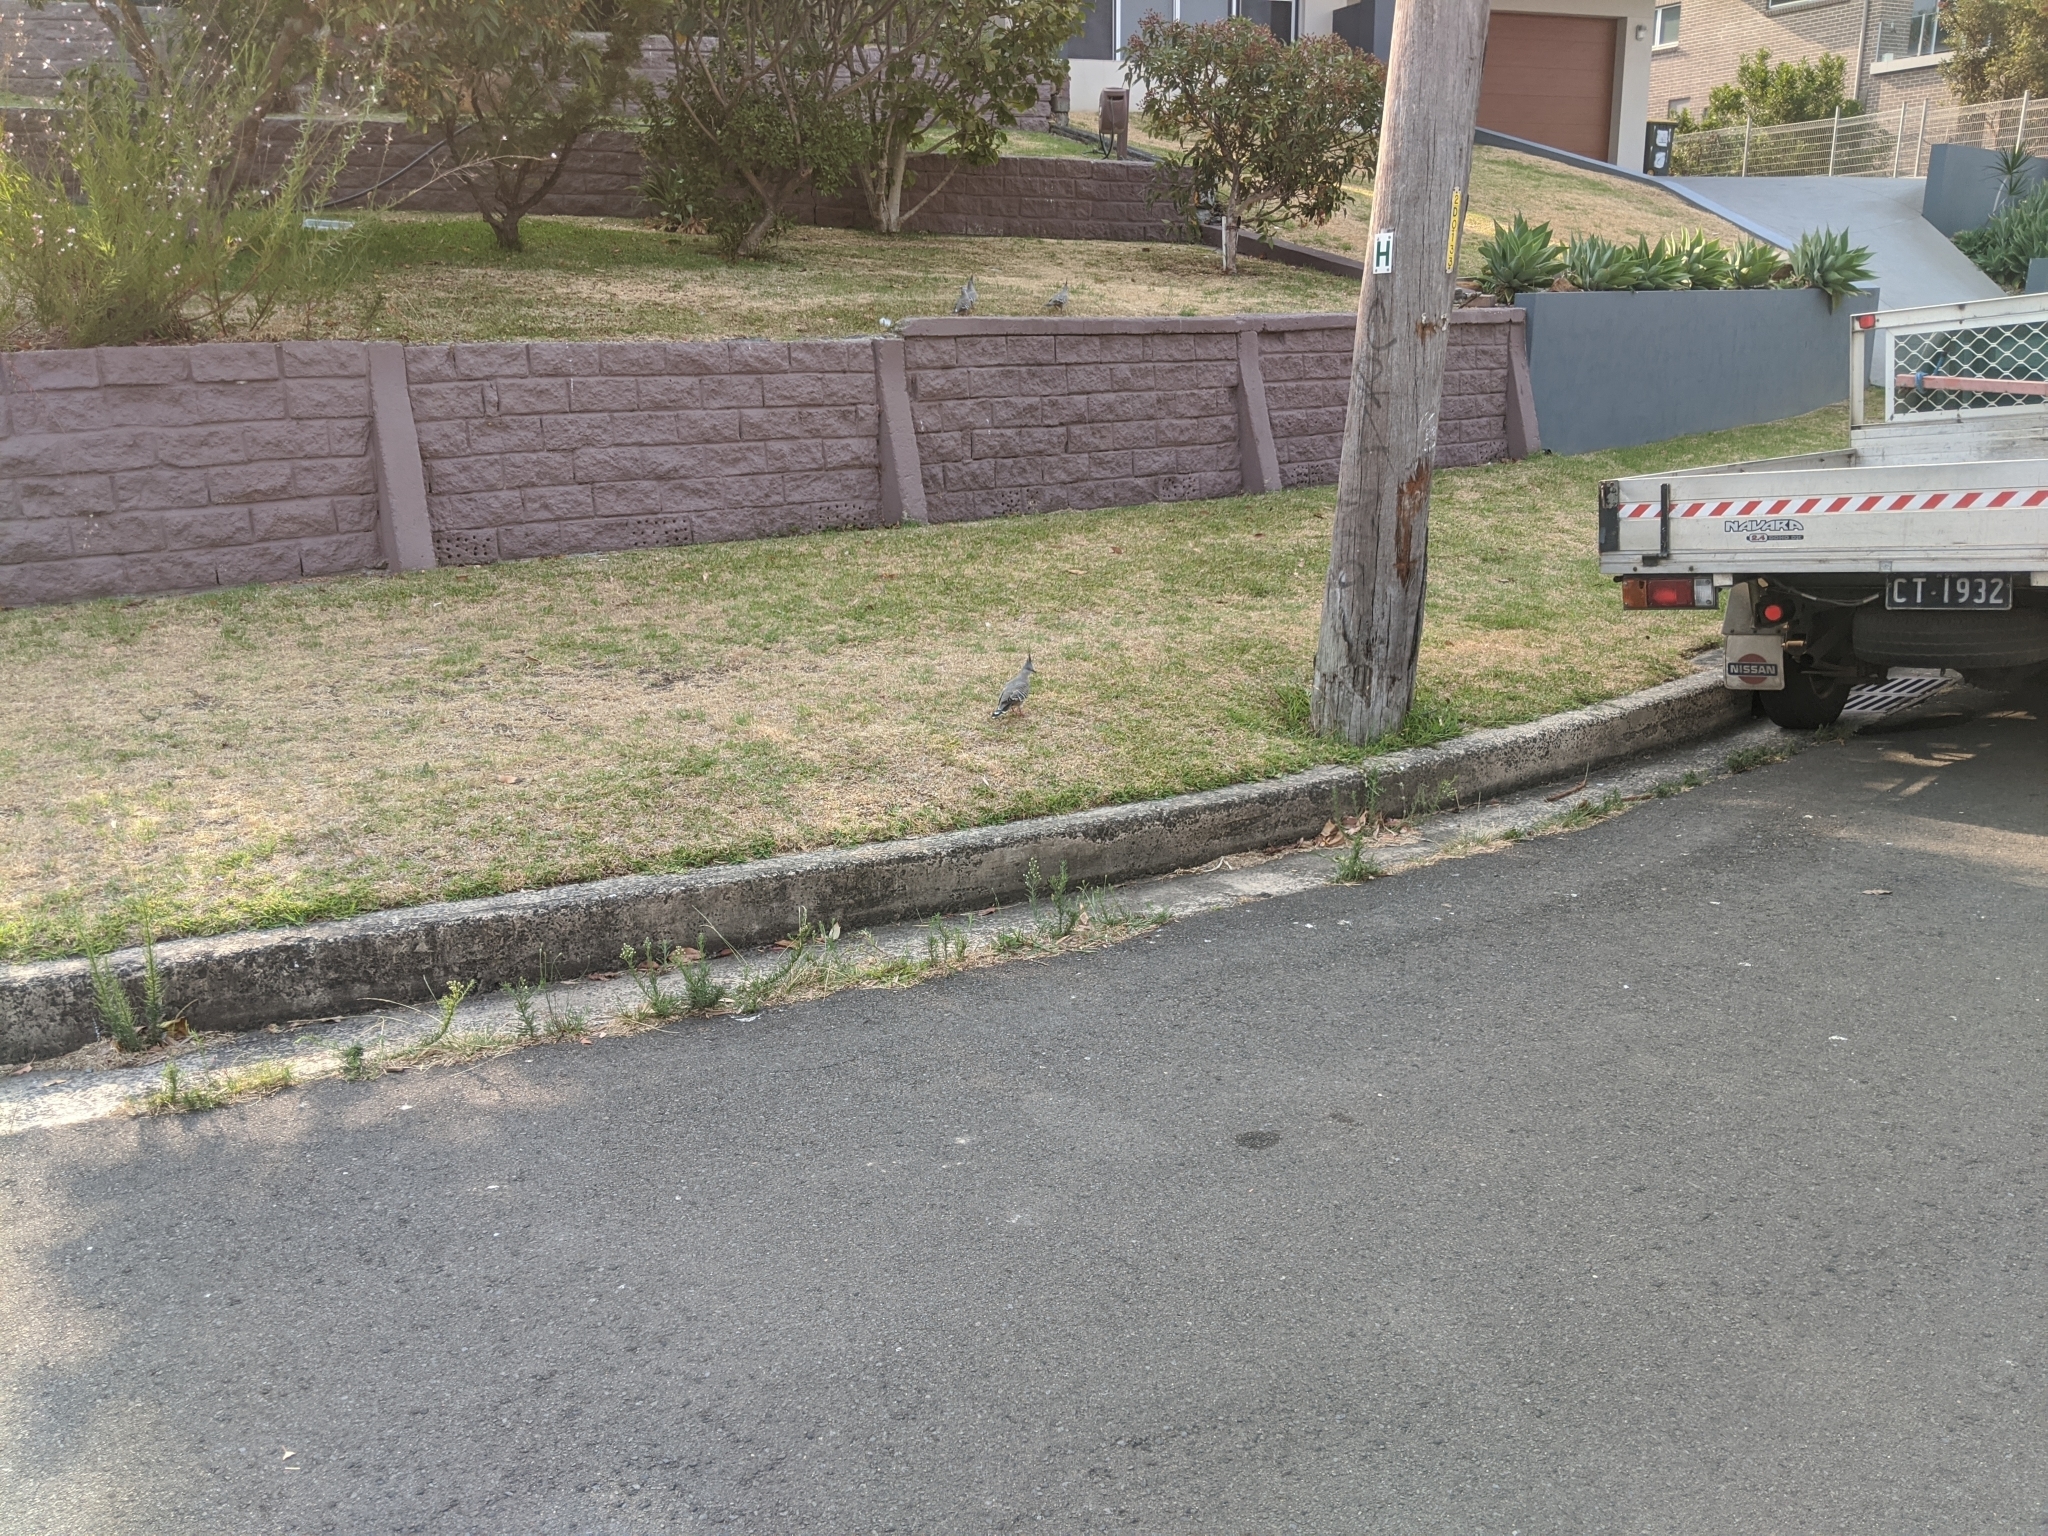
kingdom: Animalia
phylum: Chordata
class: Aves
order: Columbiformes
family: Columbidae
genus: Ocyphaps
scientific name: Ocyphaps lophotes
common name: Crested pigeon
